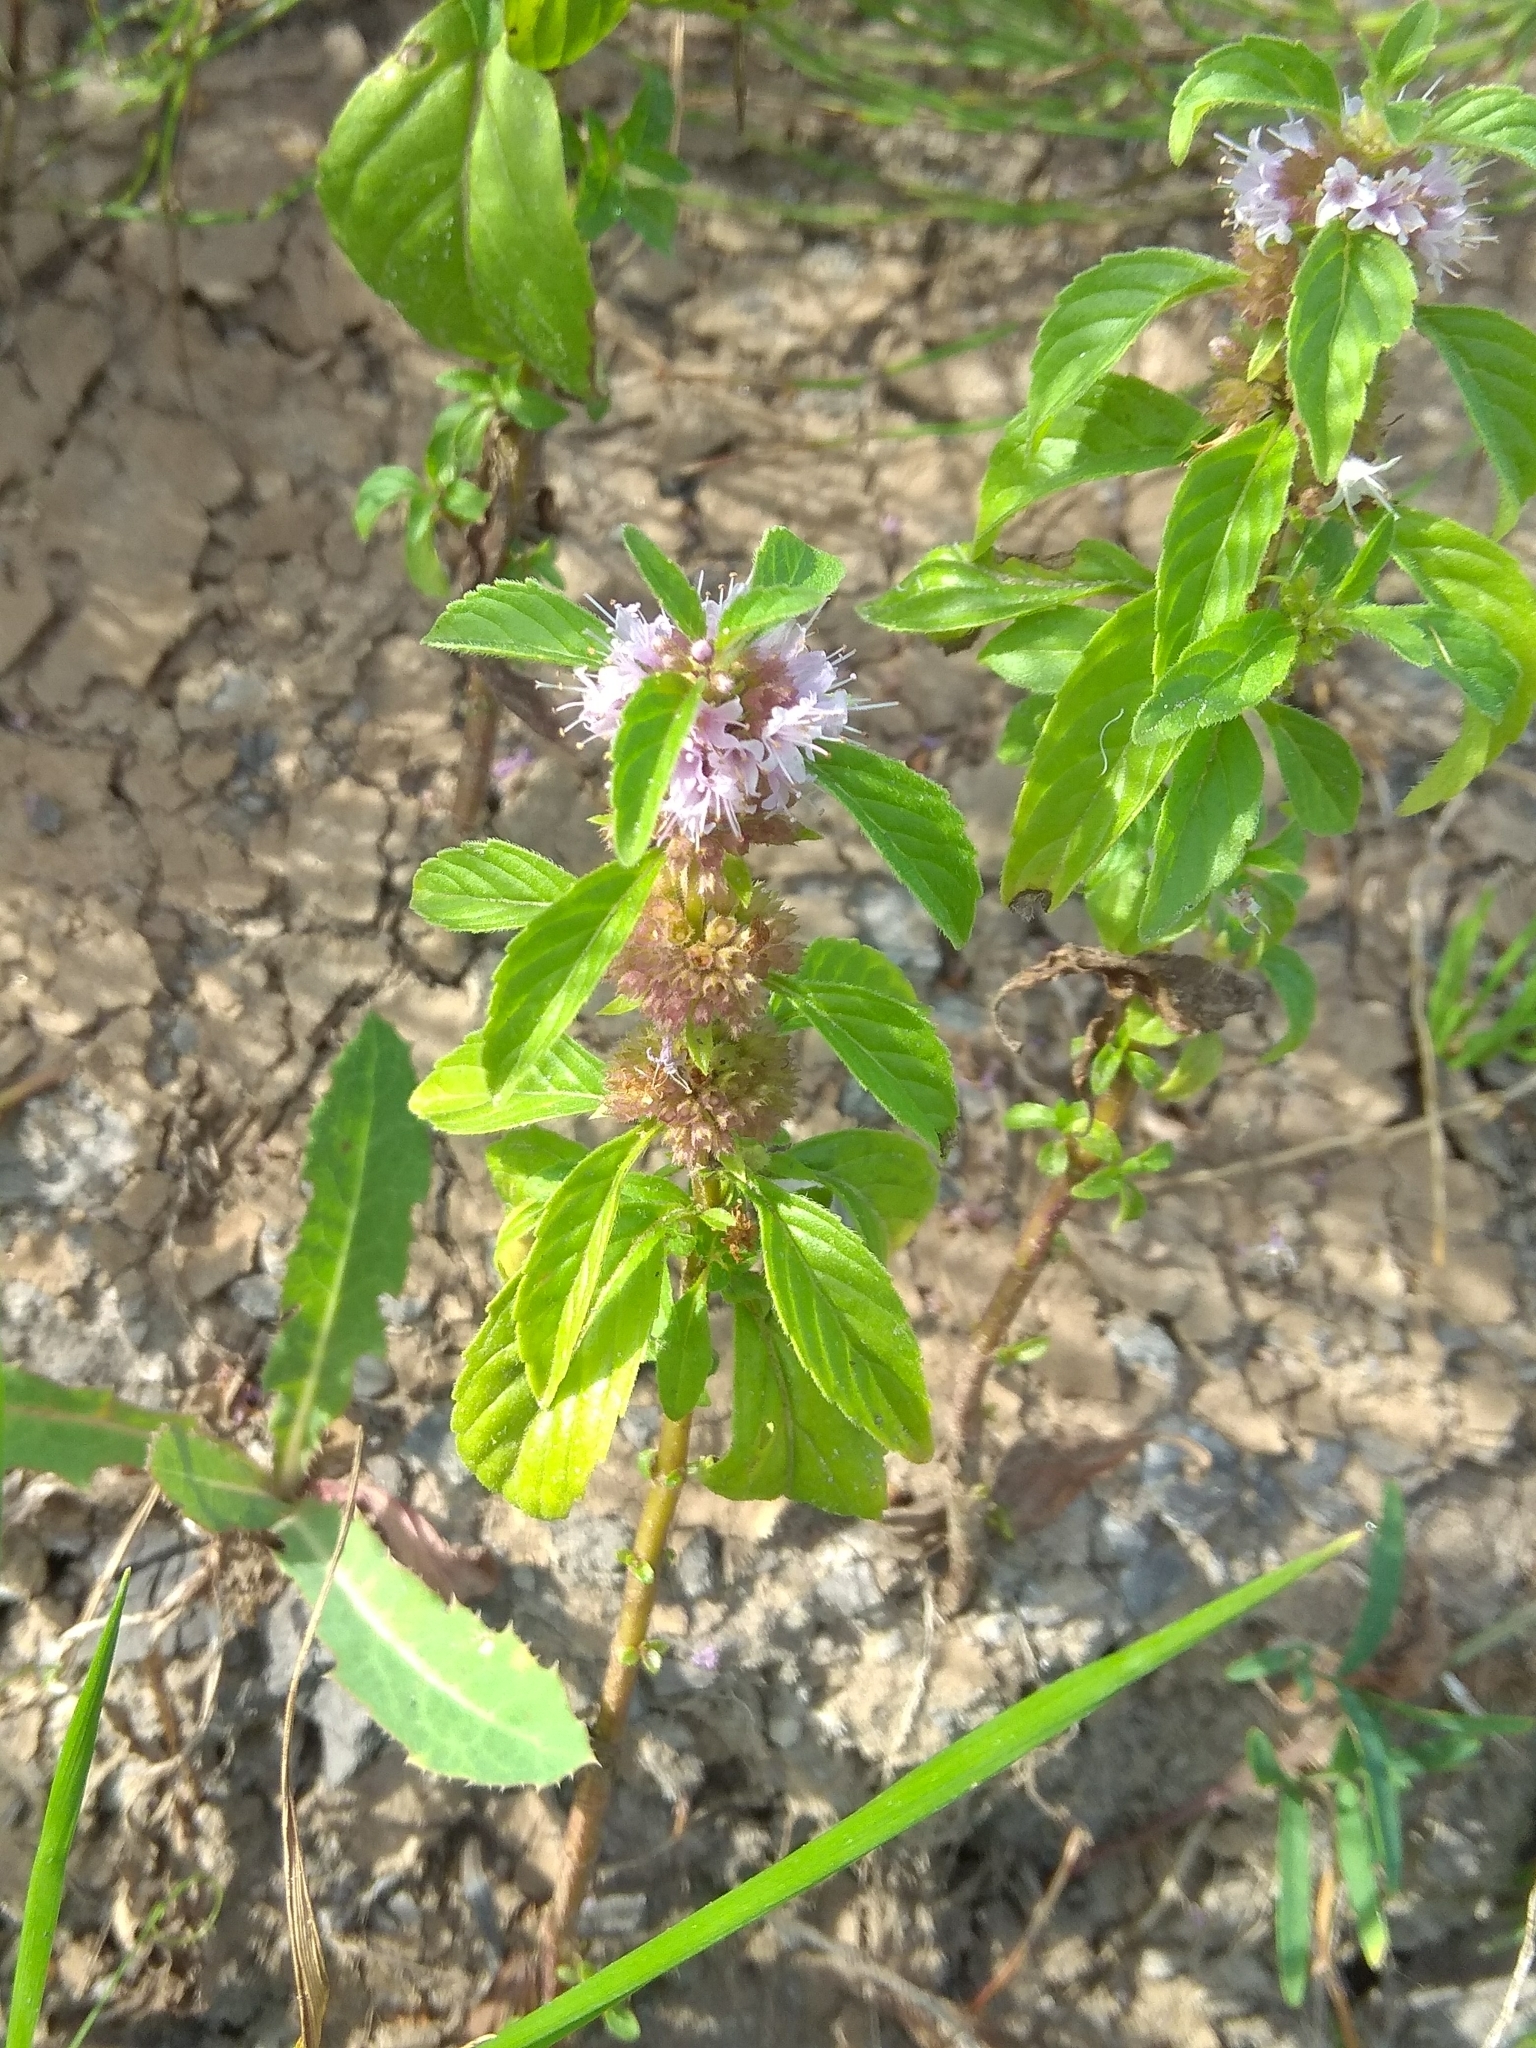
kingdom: Plantae
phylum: Tracheophyta
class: Magnoliopsida
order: Lamiales
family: Lamiaceae
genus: Mentha
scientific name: Mentha arvensis
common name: Corn mint
